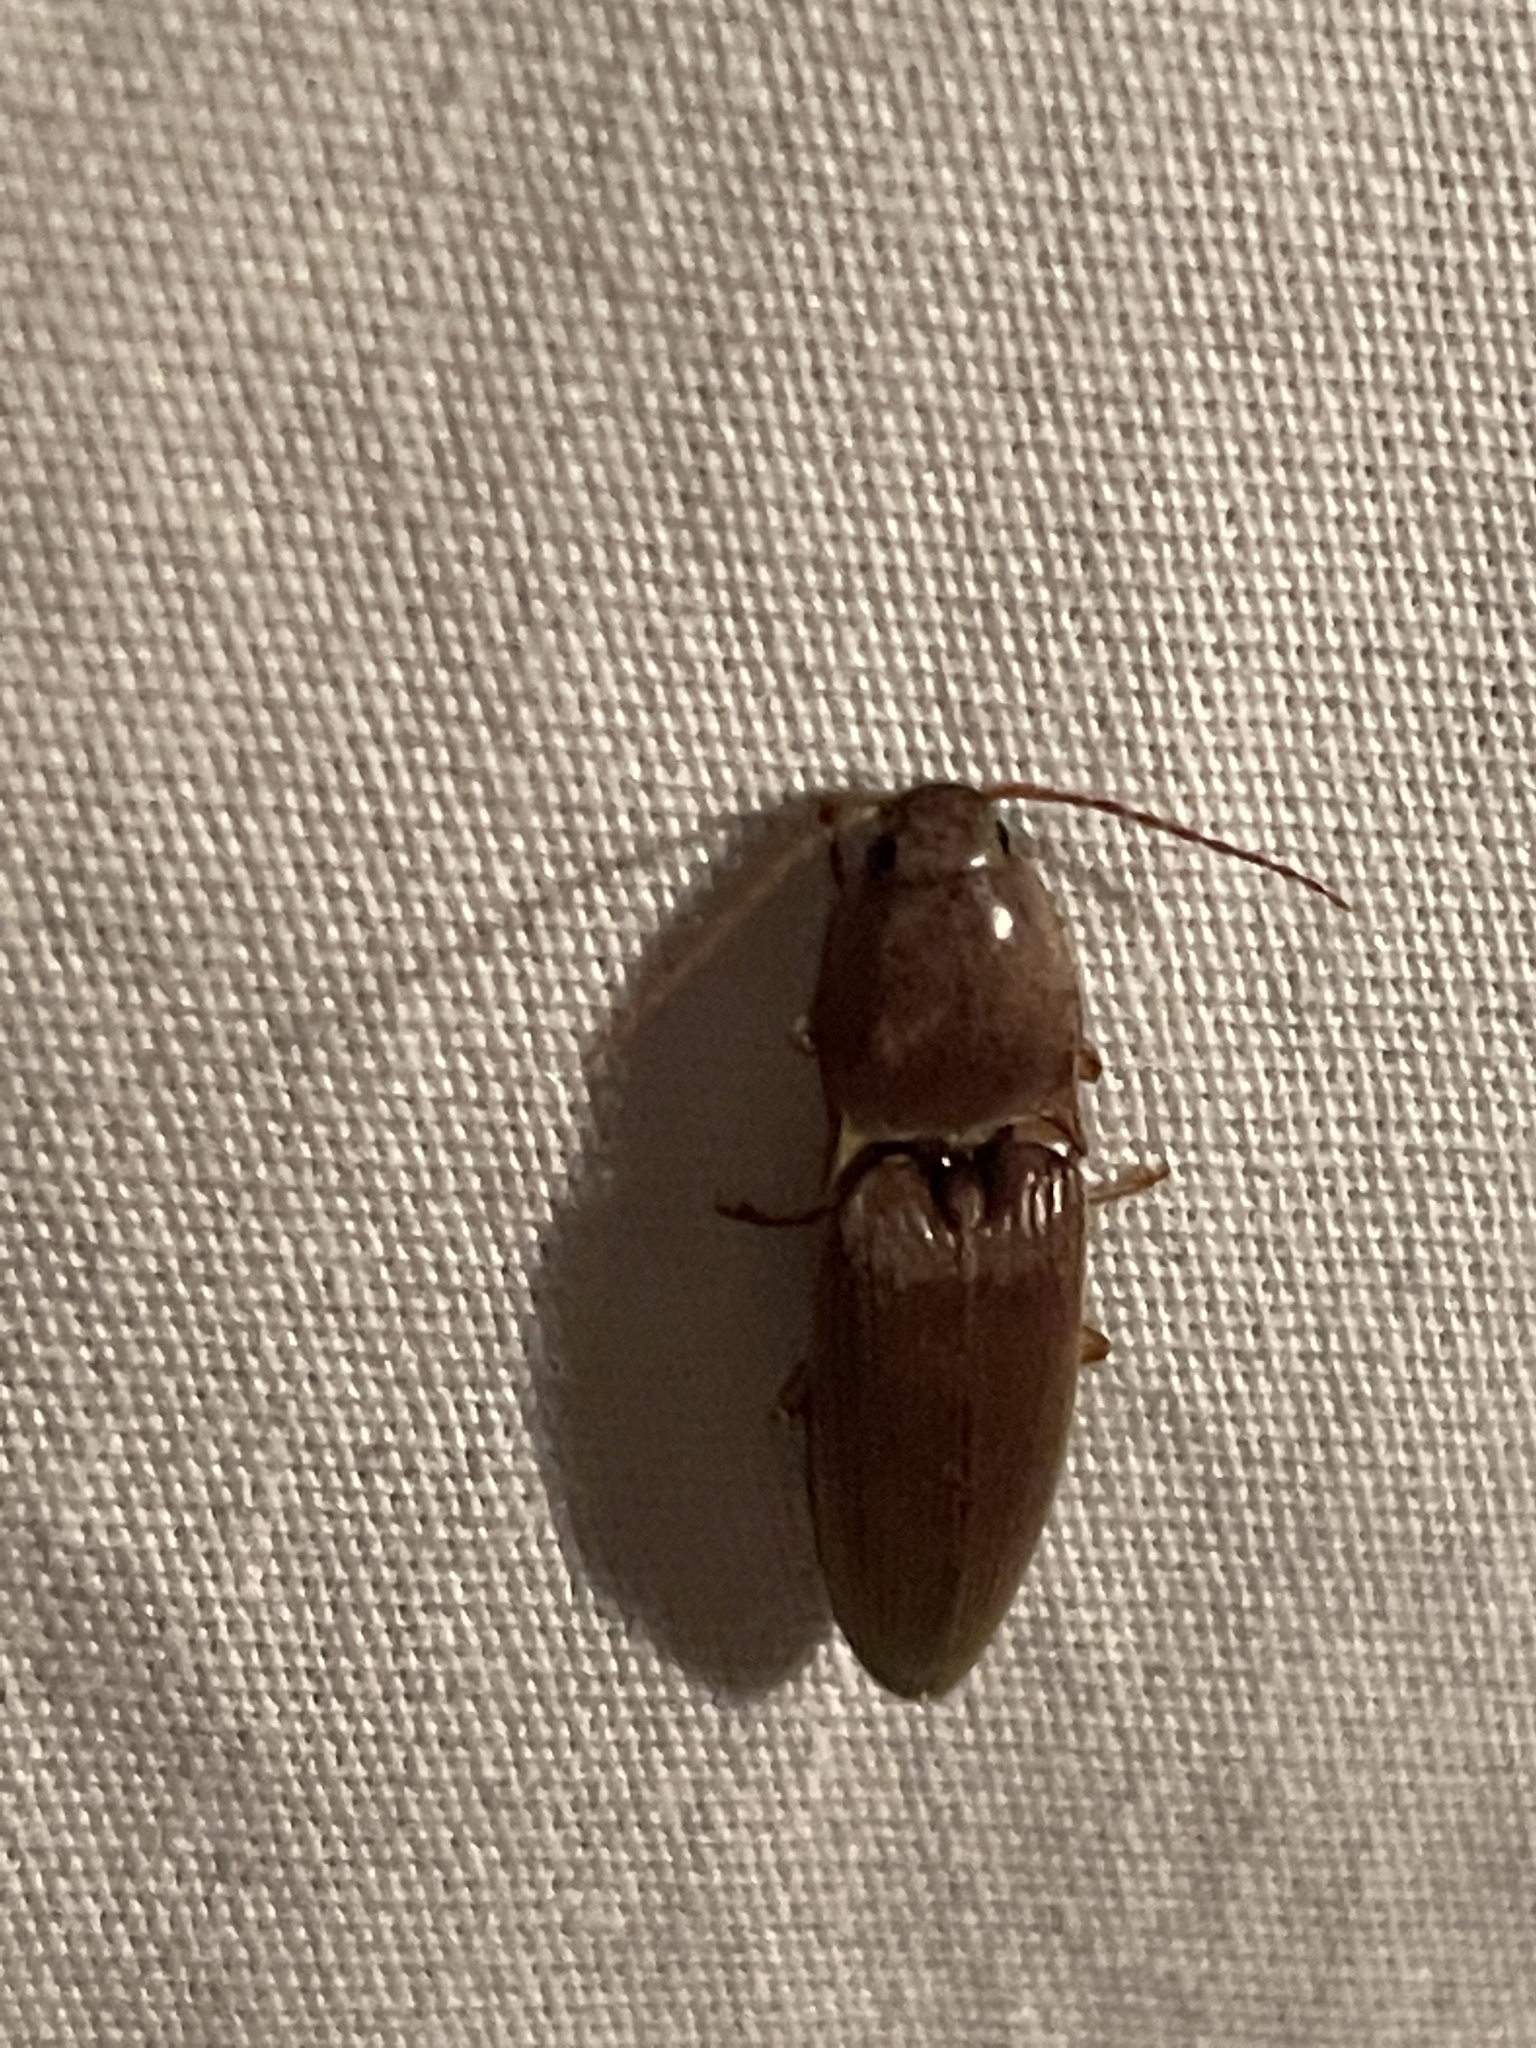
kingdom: Animalia
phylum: Arthropoda
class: Insecta
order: Coleoptera
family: Elateridae
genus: Monocrepidius
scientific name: Monocrepidius lividus
